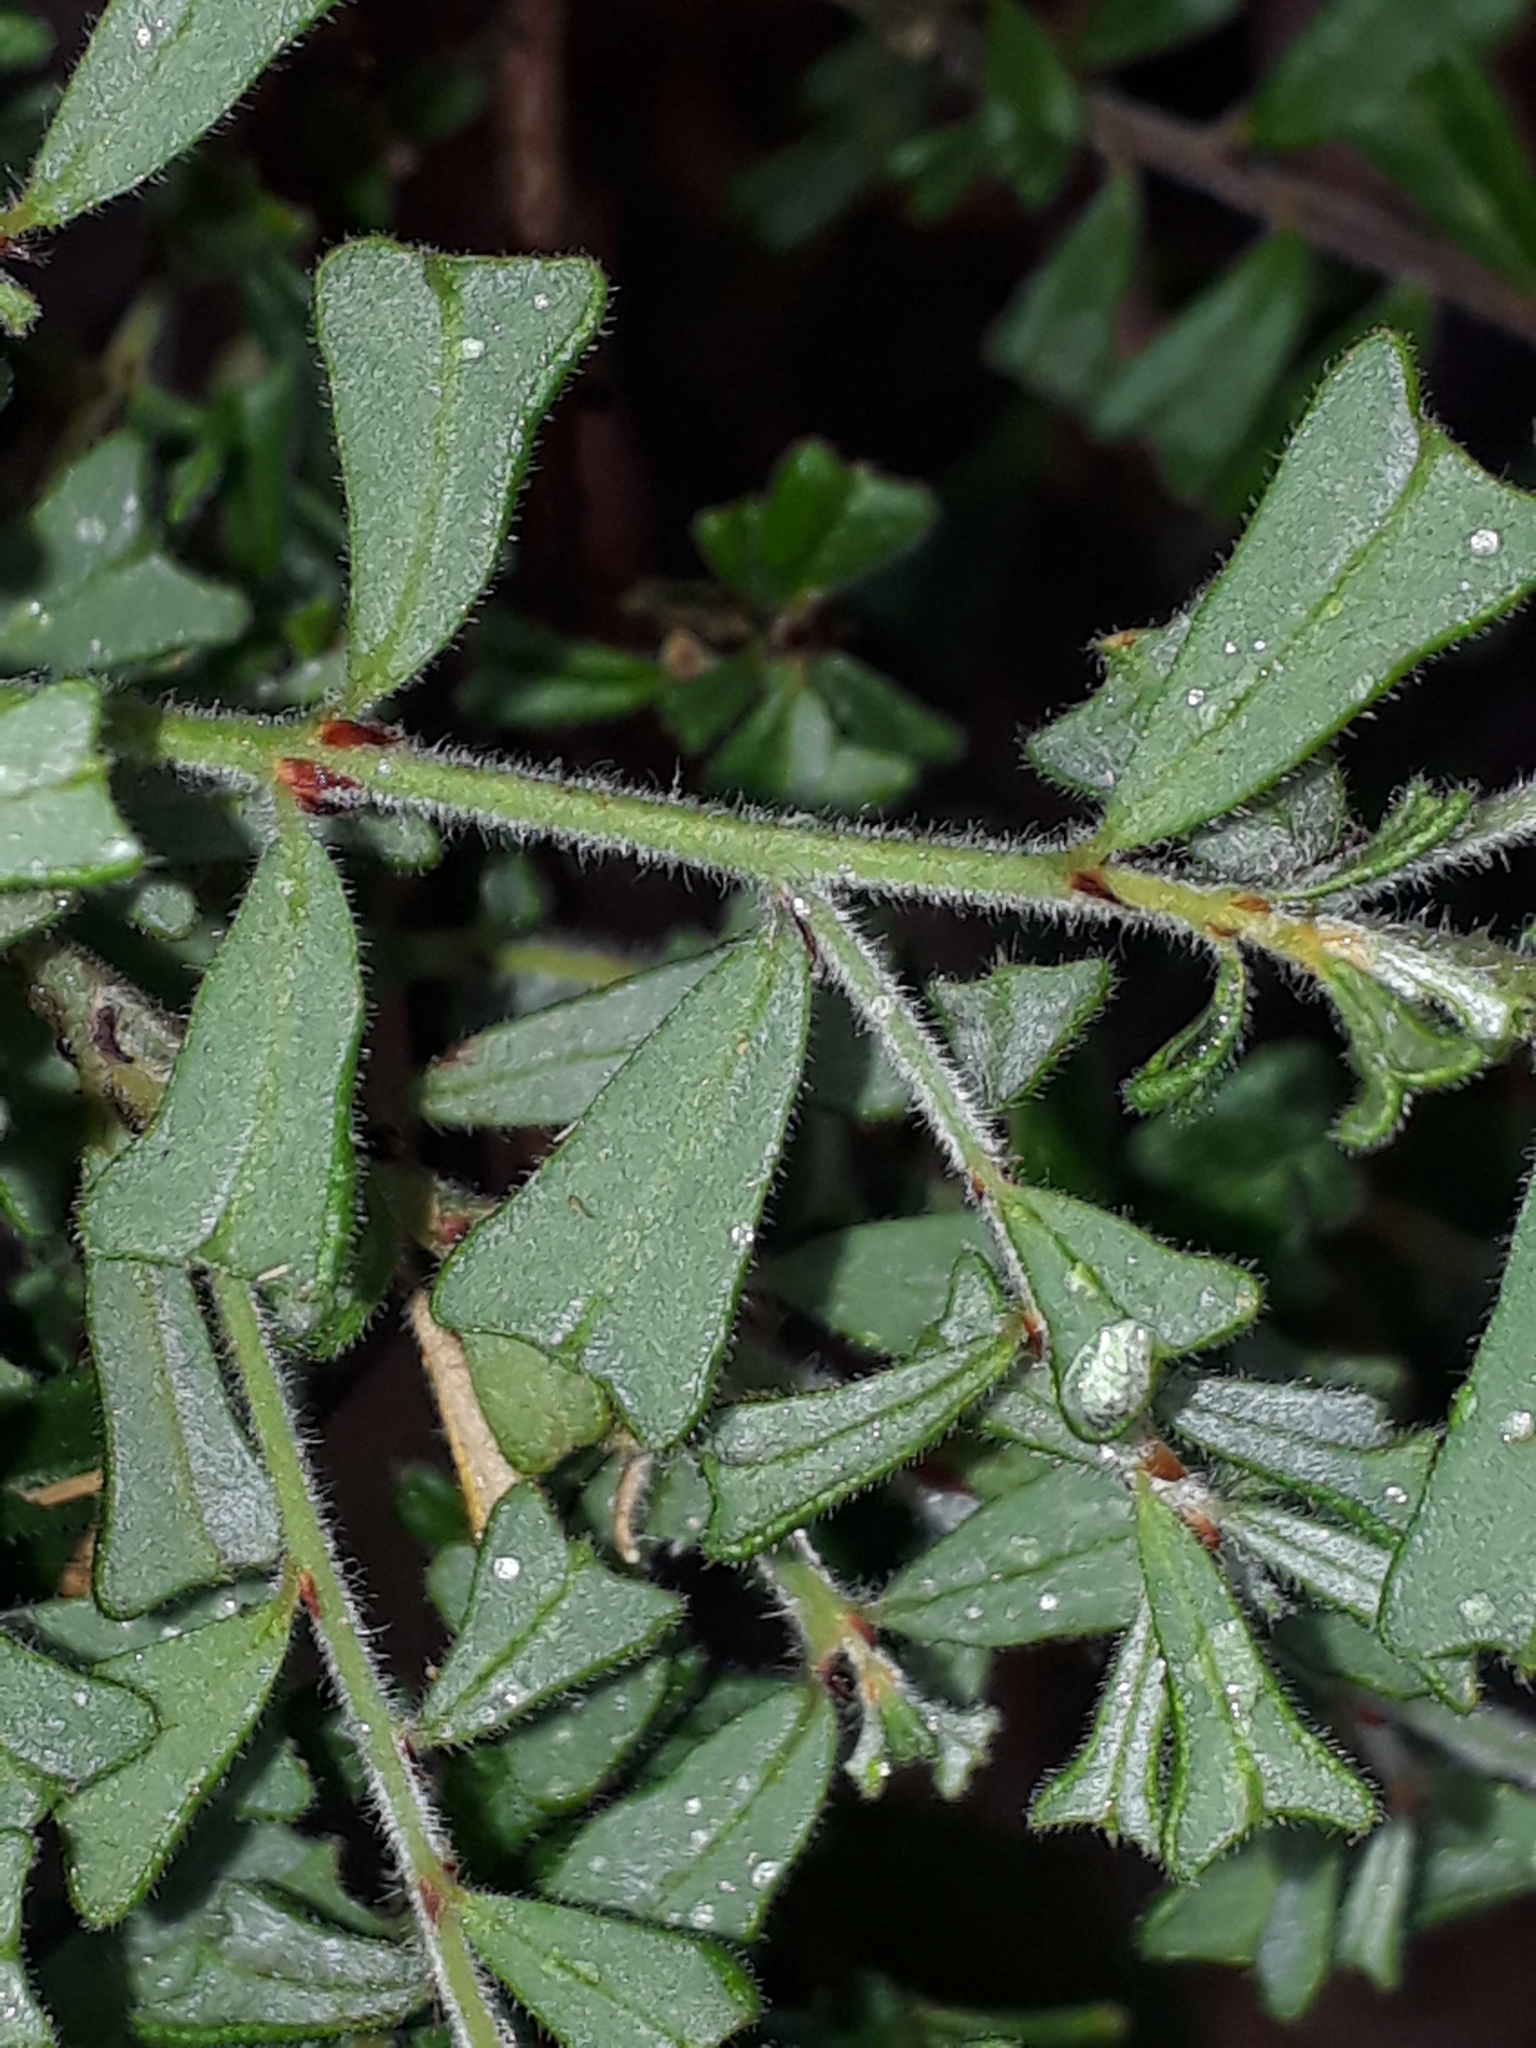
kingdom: Plantae
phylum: Tracheophyta
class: Magnoliopsida
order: Fabales
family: Fabaceae
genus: Pultenaea
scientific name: Pultenaea scabra
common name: Rough bush-pea
